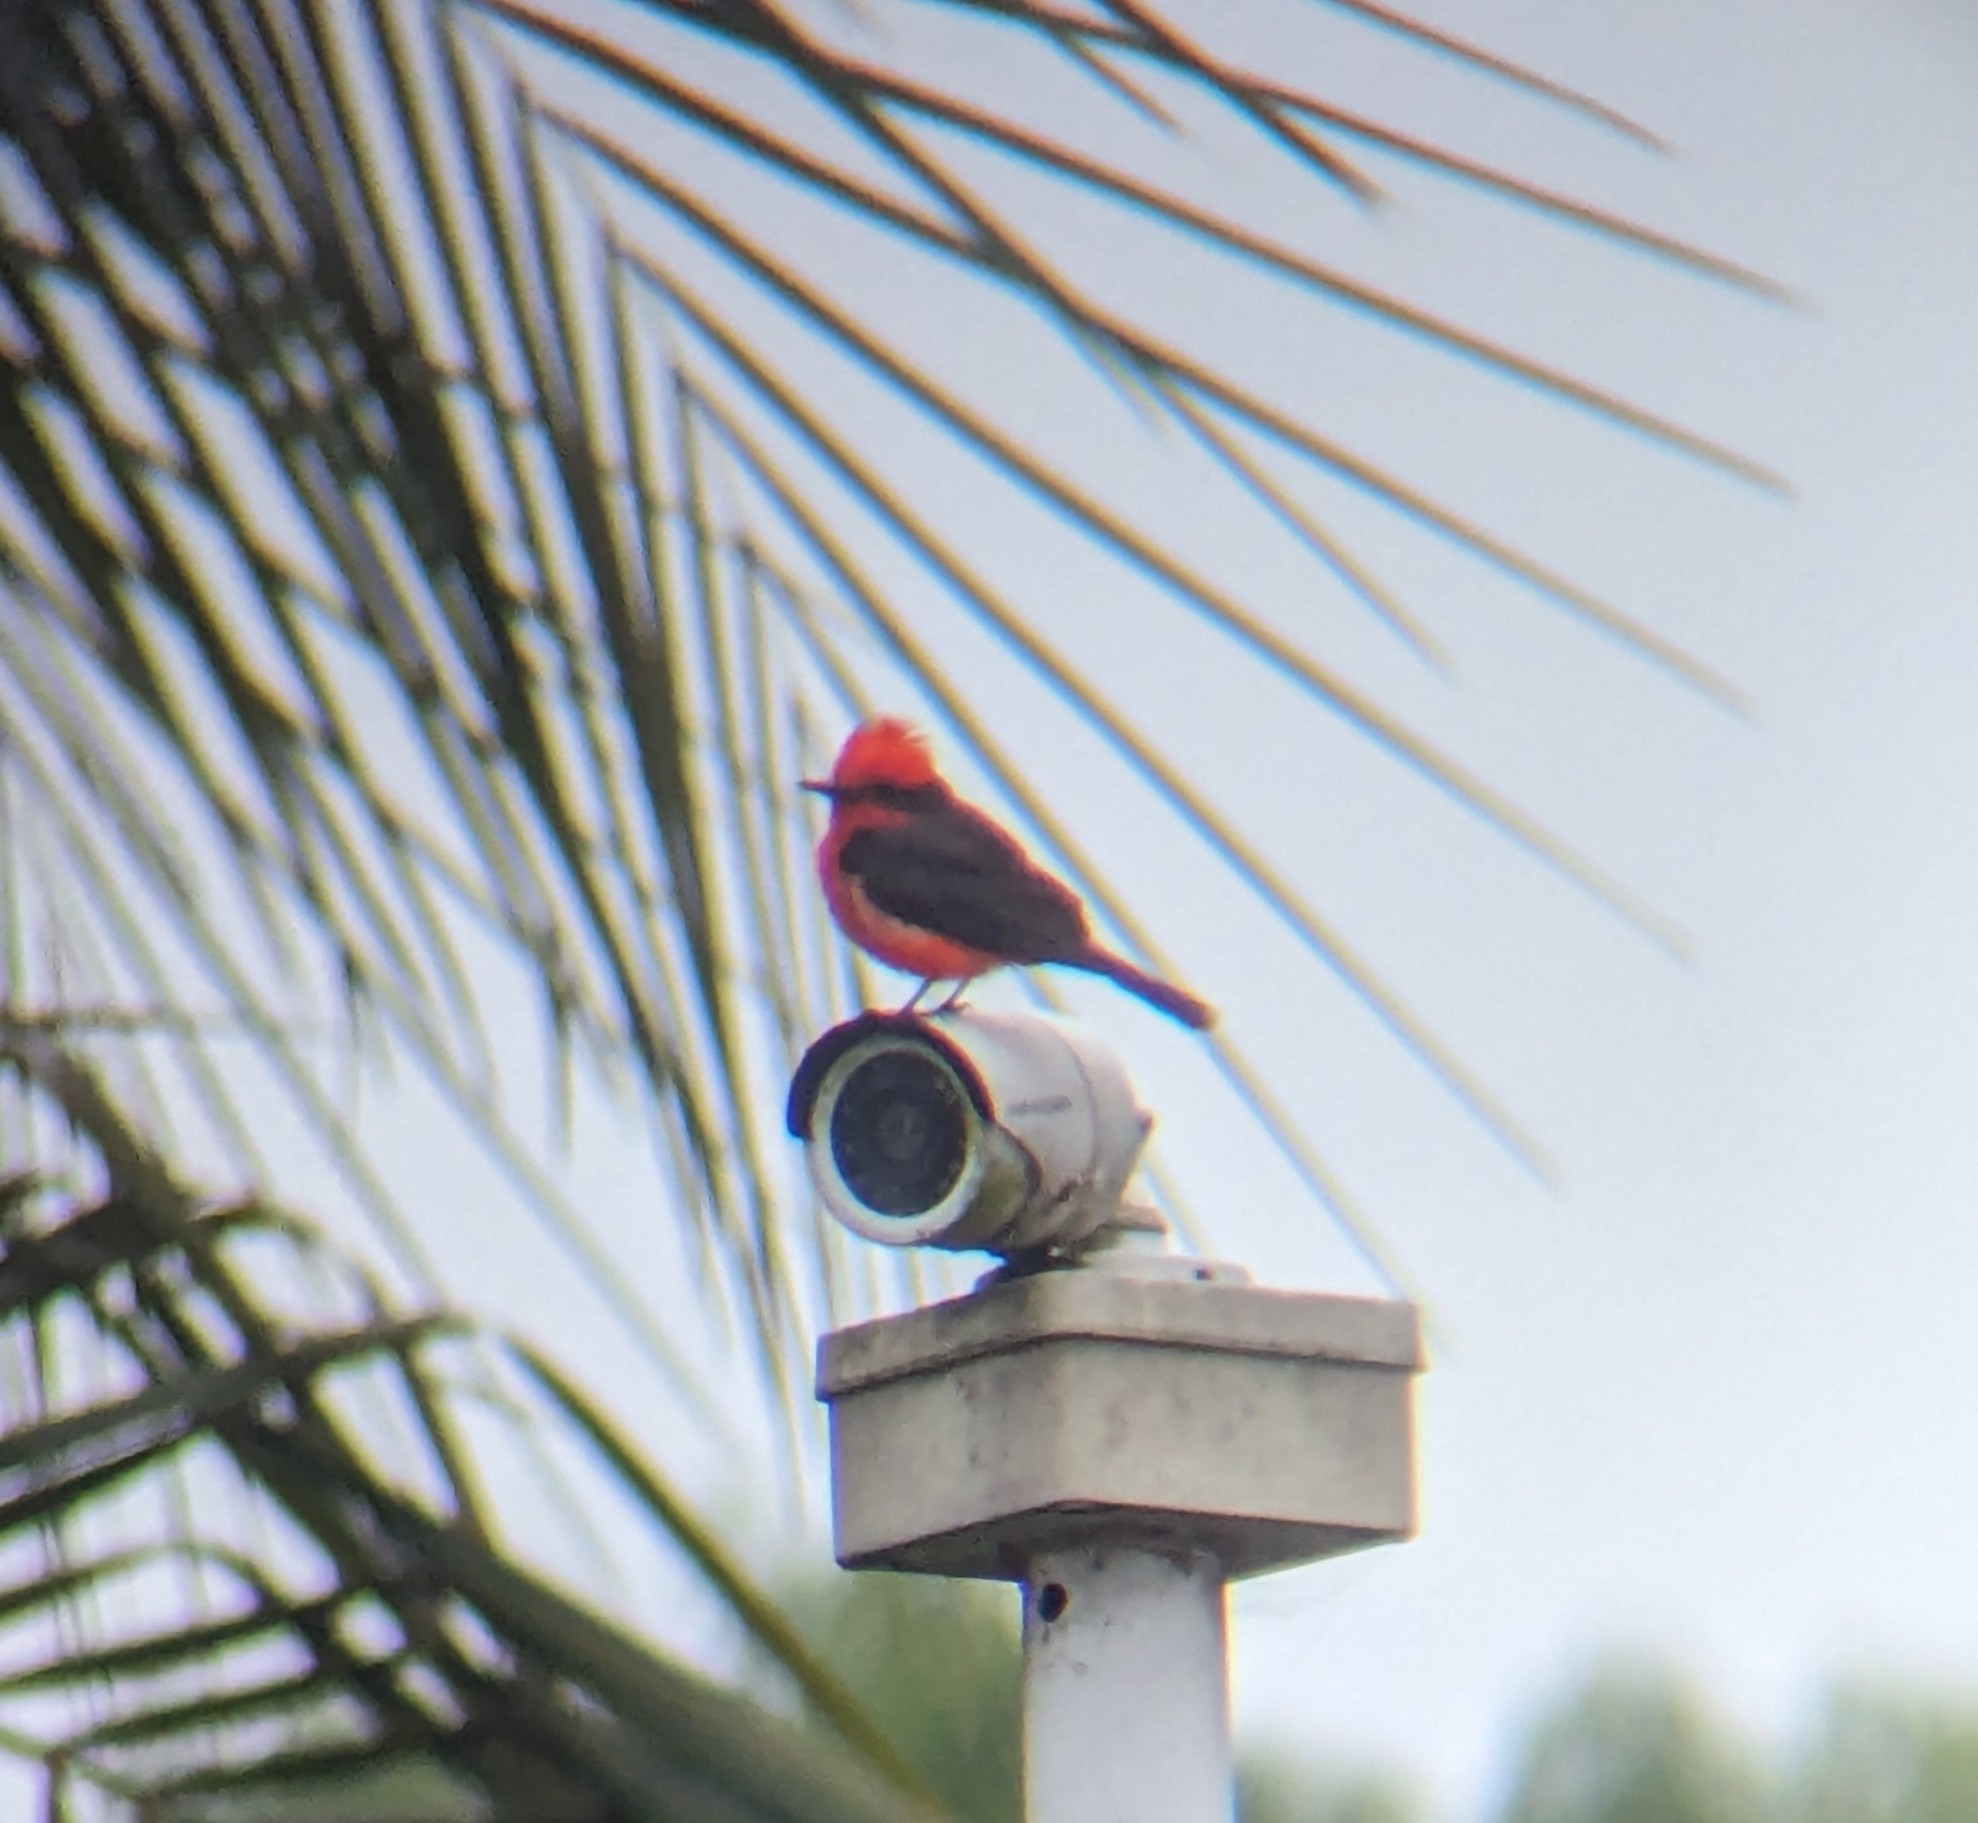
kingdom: Animalia
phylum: Chordata
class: Aves
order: Passeriformes
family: Tyrannidae
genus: Pyrocephalus
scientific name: Pyrocephalus rubinus
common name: Vermilion flycatcher
